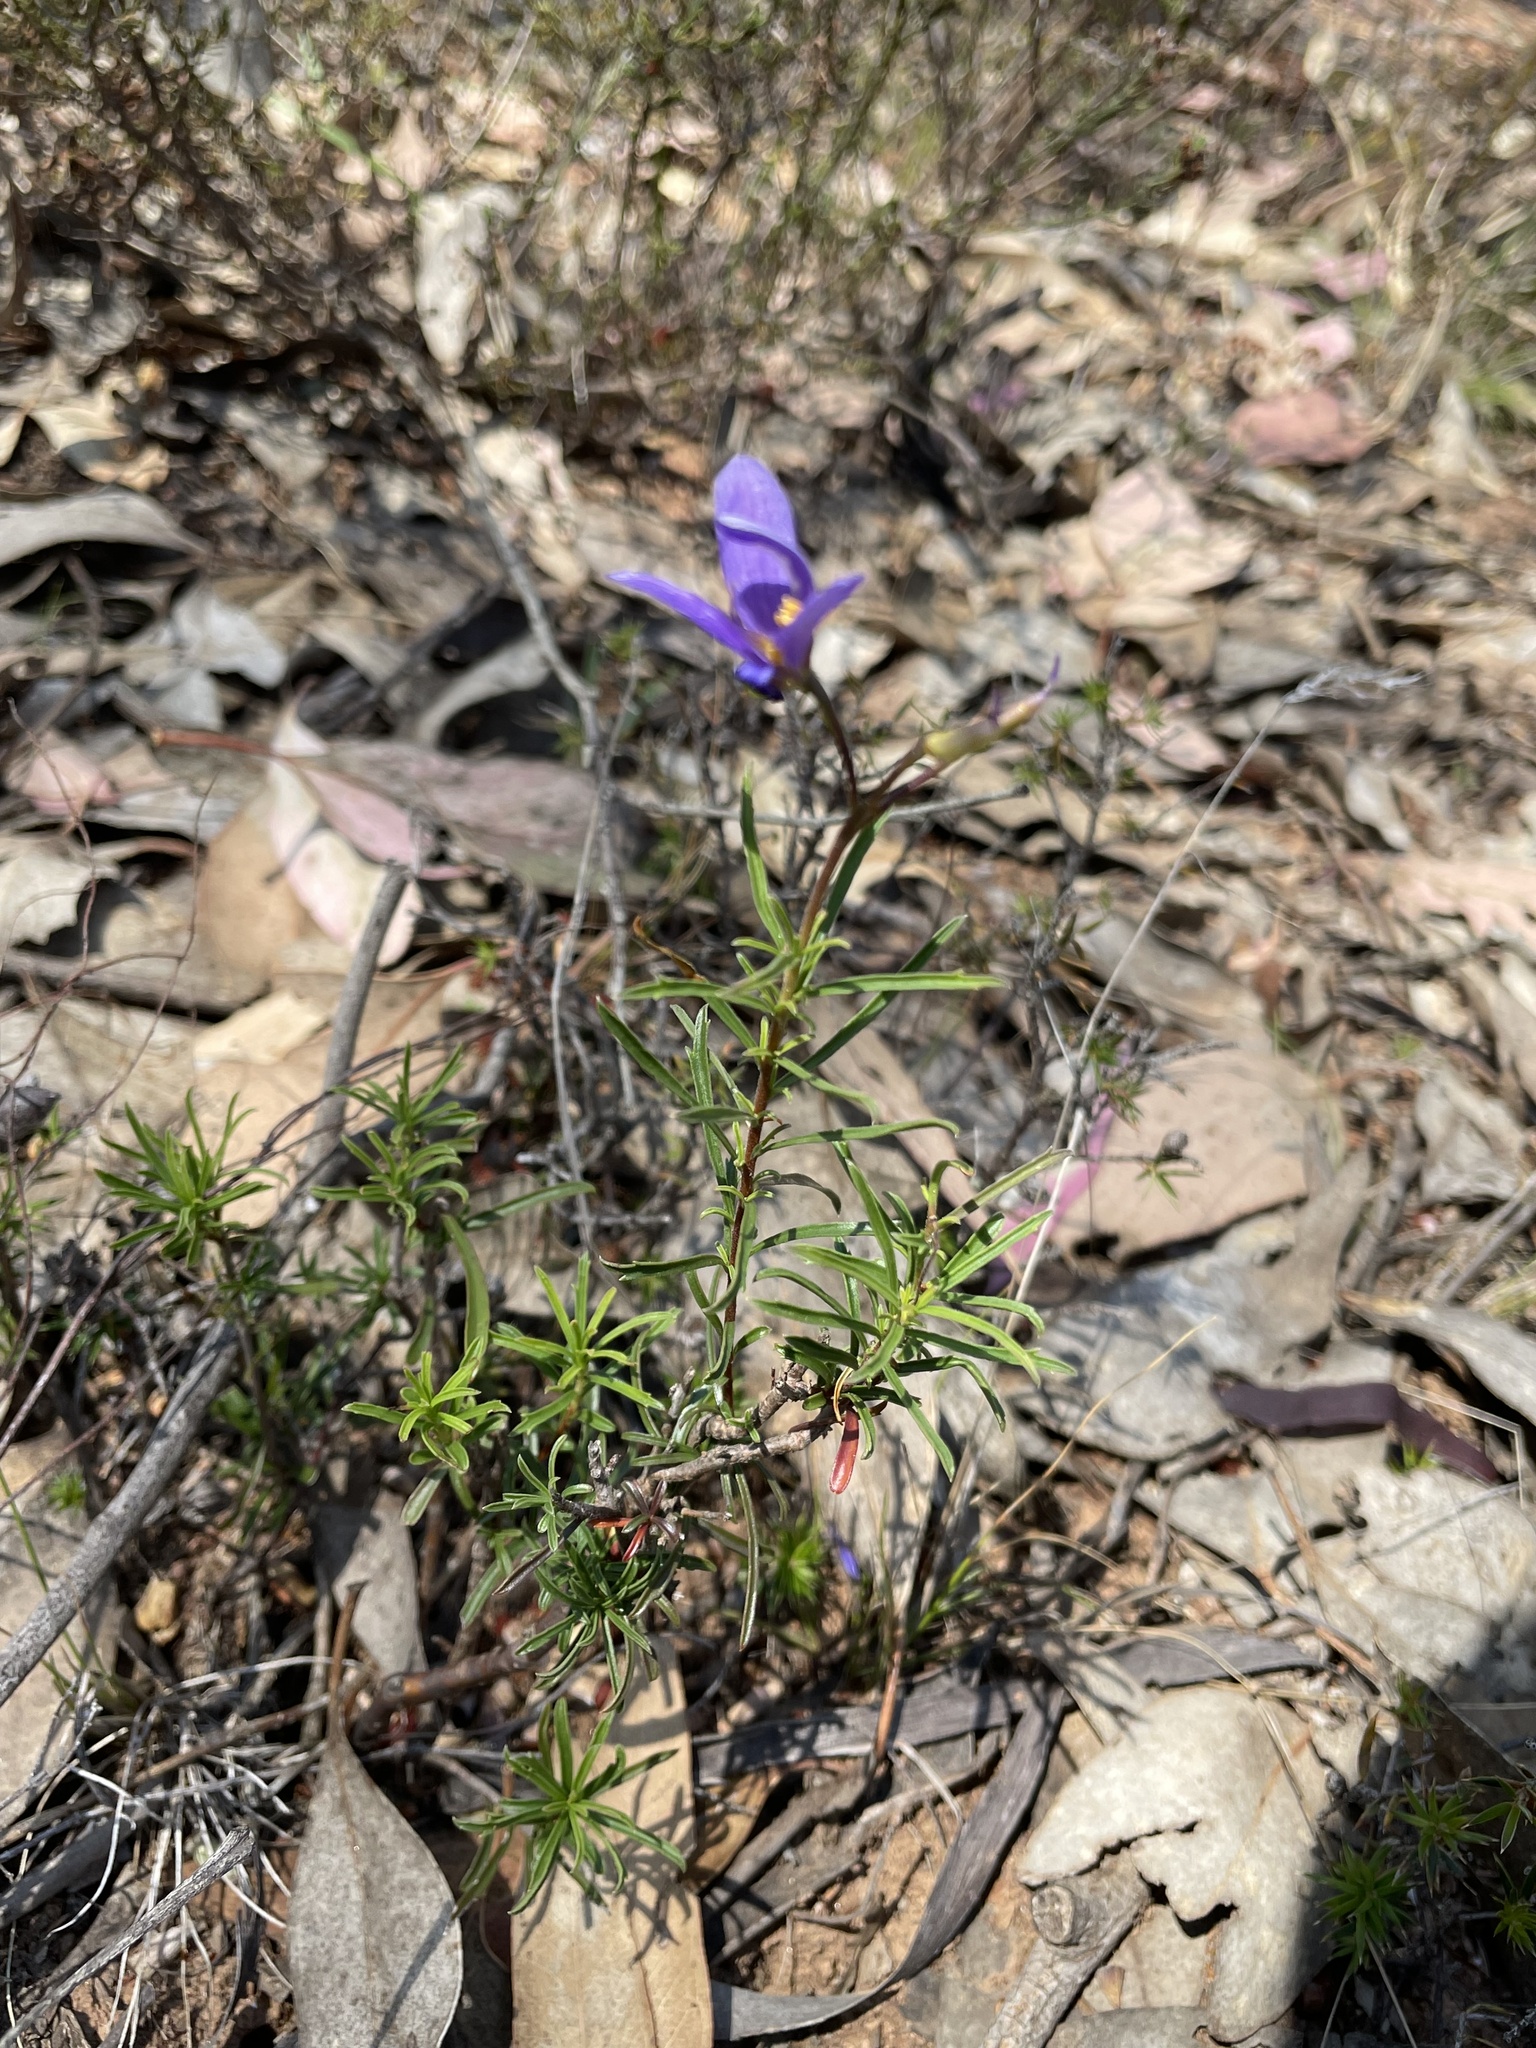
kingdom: Plantae
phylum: Tracheophyta
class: Magnoliopsida
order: Apiales
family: Pittosporaceae
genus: Cheiranthera
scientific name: Cheiranthera linearis
